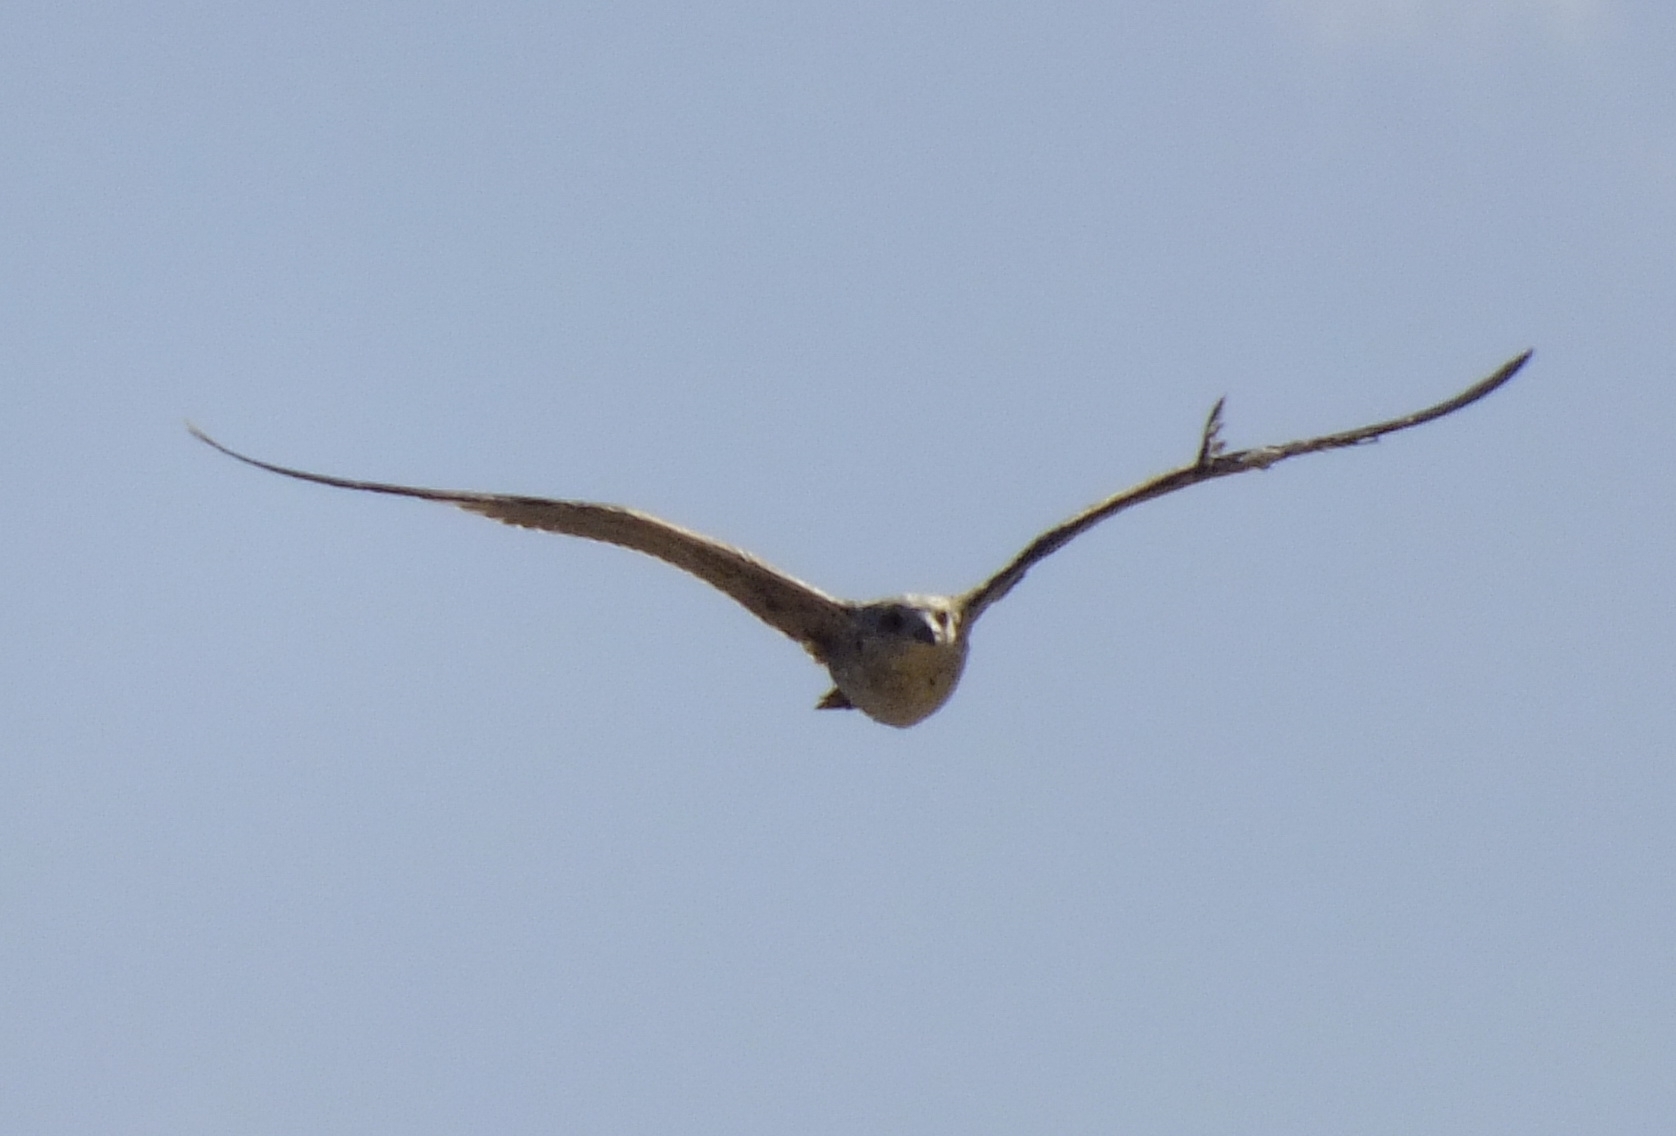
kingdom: Animalia
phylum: Chordata
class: Aves
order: Charadriiformes
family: Laridae
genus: Larus
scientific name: Larus
